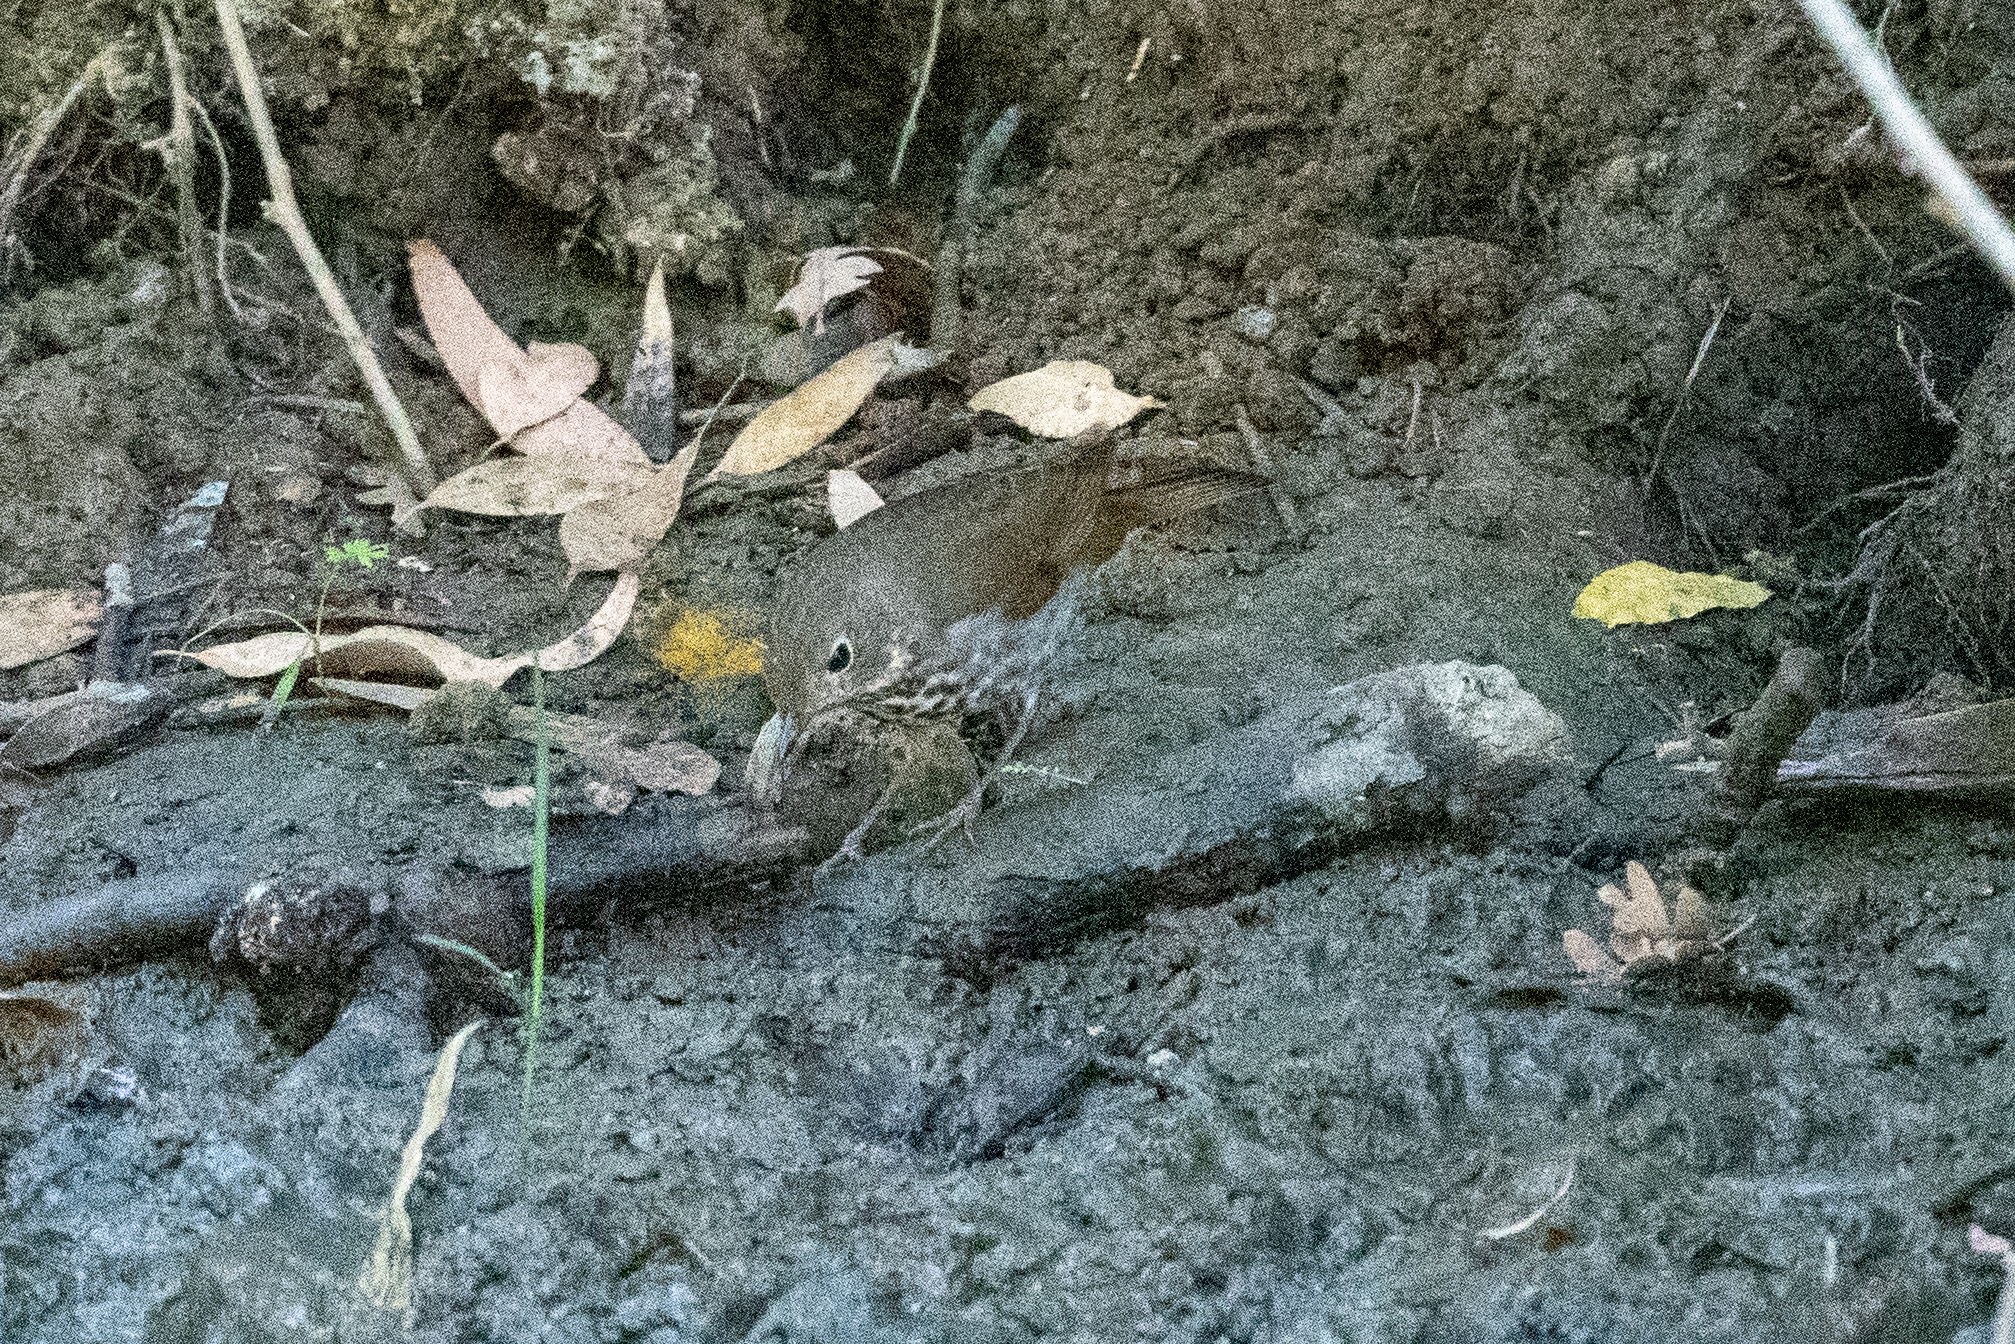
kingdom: Animalia
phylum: Chordata
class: Aves
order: Passeriformes
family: Turdidae
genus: Catharus
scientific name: Catharus guttatus
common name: Hermit thrush
